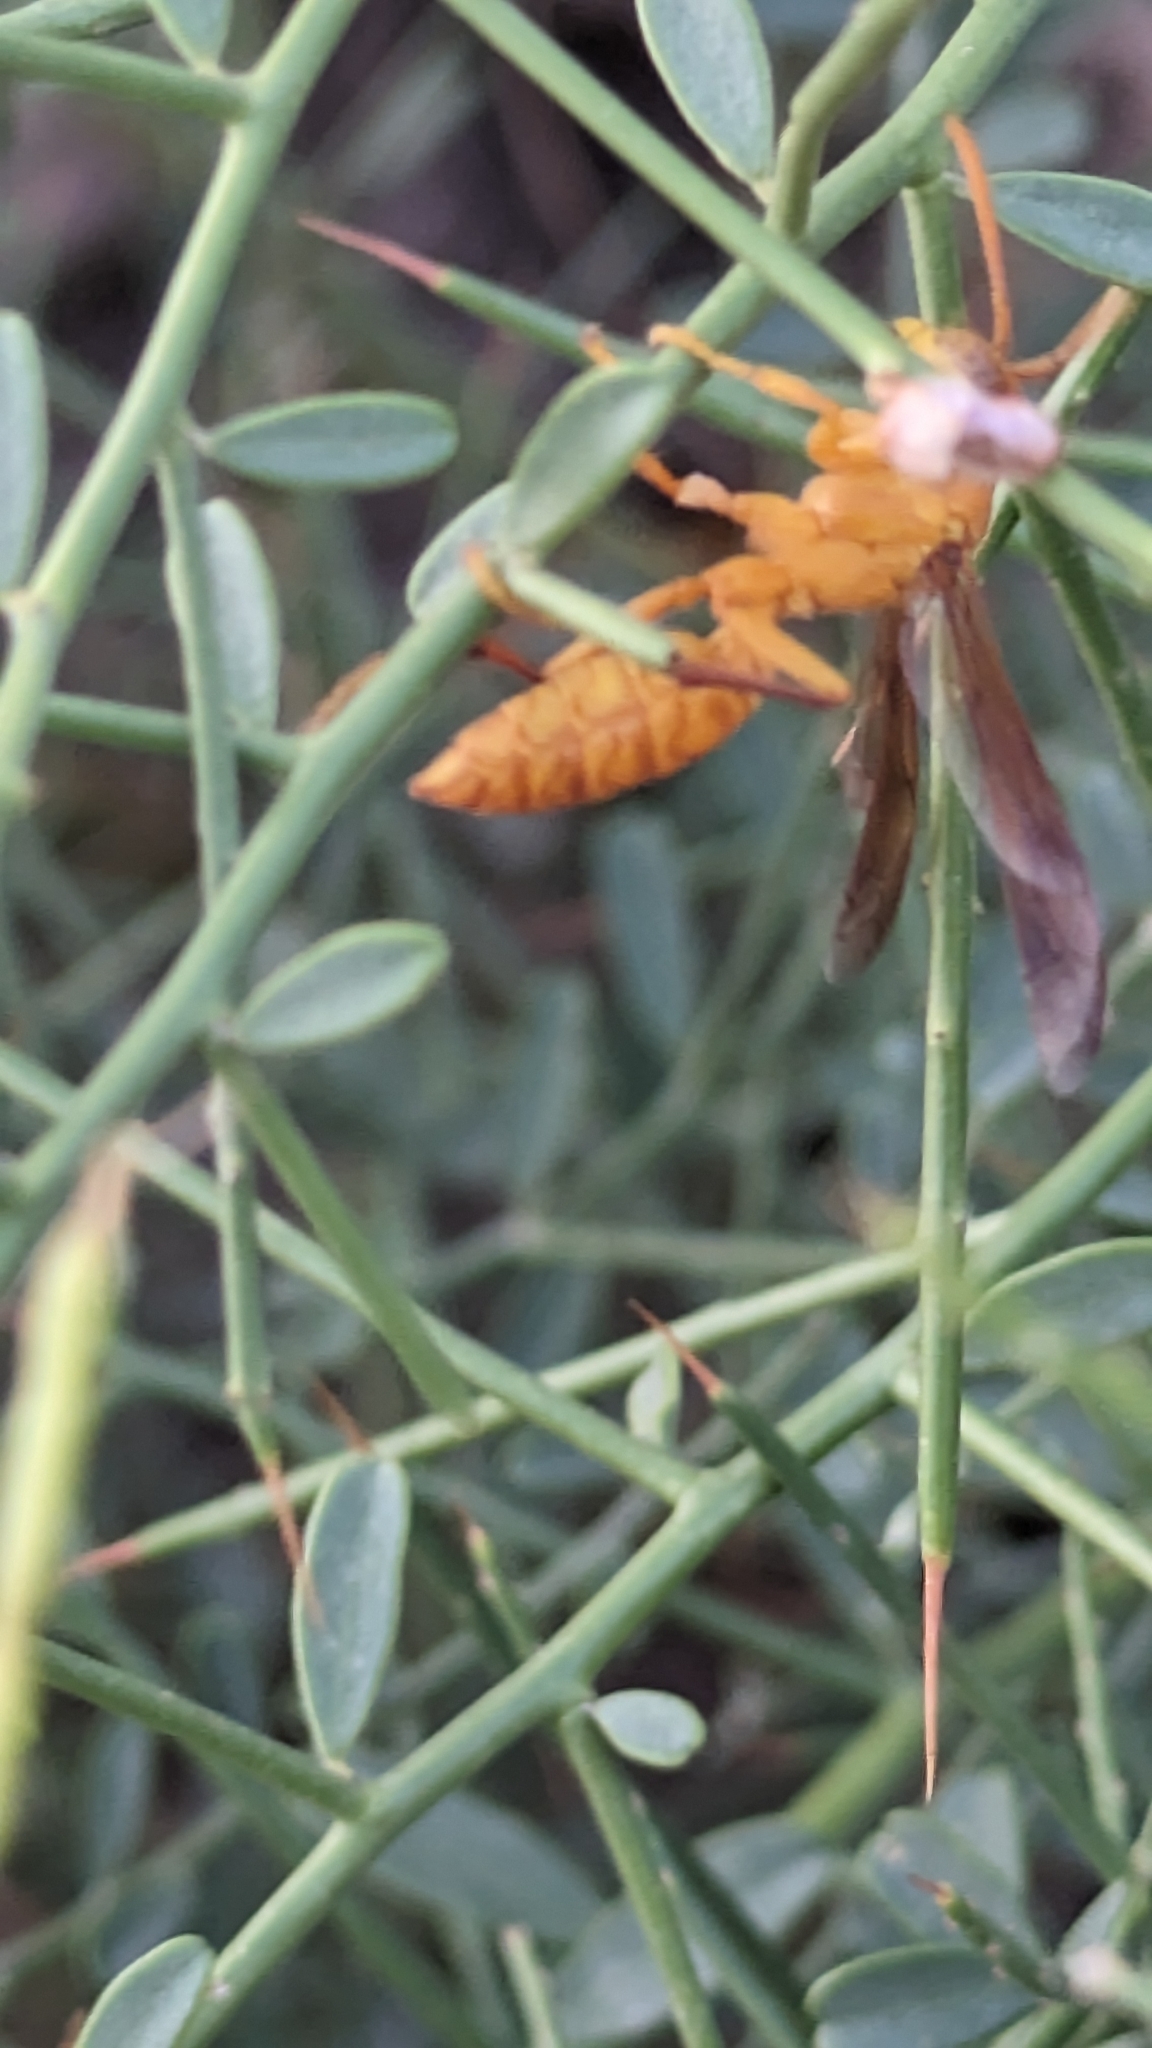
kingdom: Animalia
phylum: Arthropoda
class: Insecta
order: Hymenoptera
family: Eumenidae
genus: Polistes
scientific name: Polistes wattii
